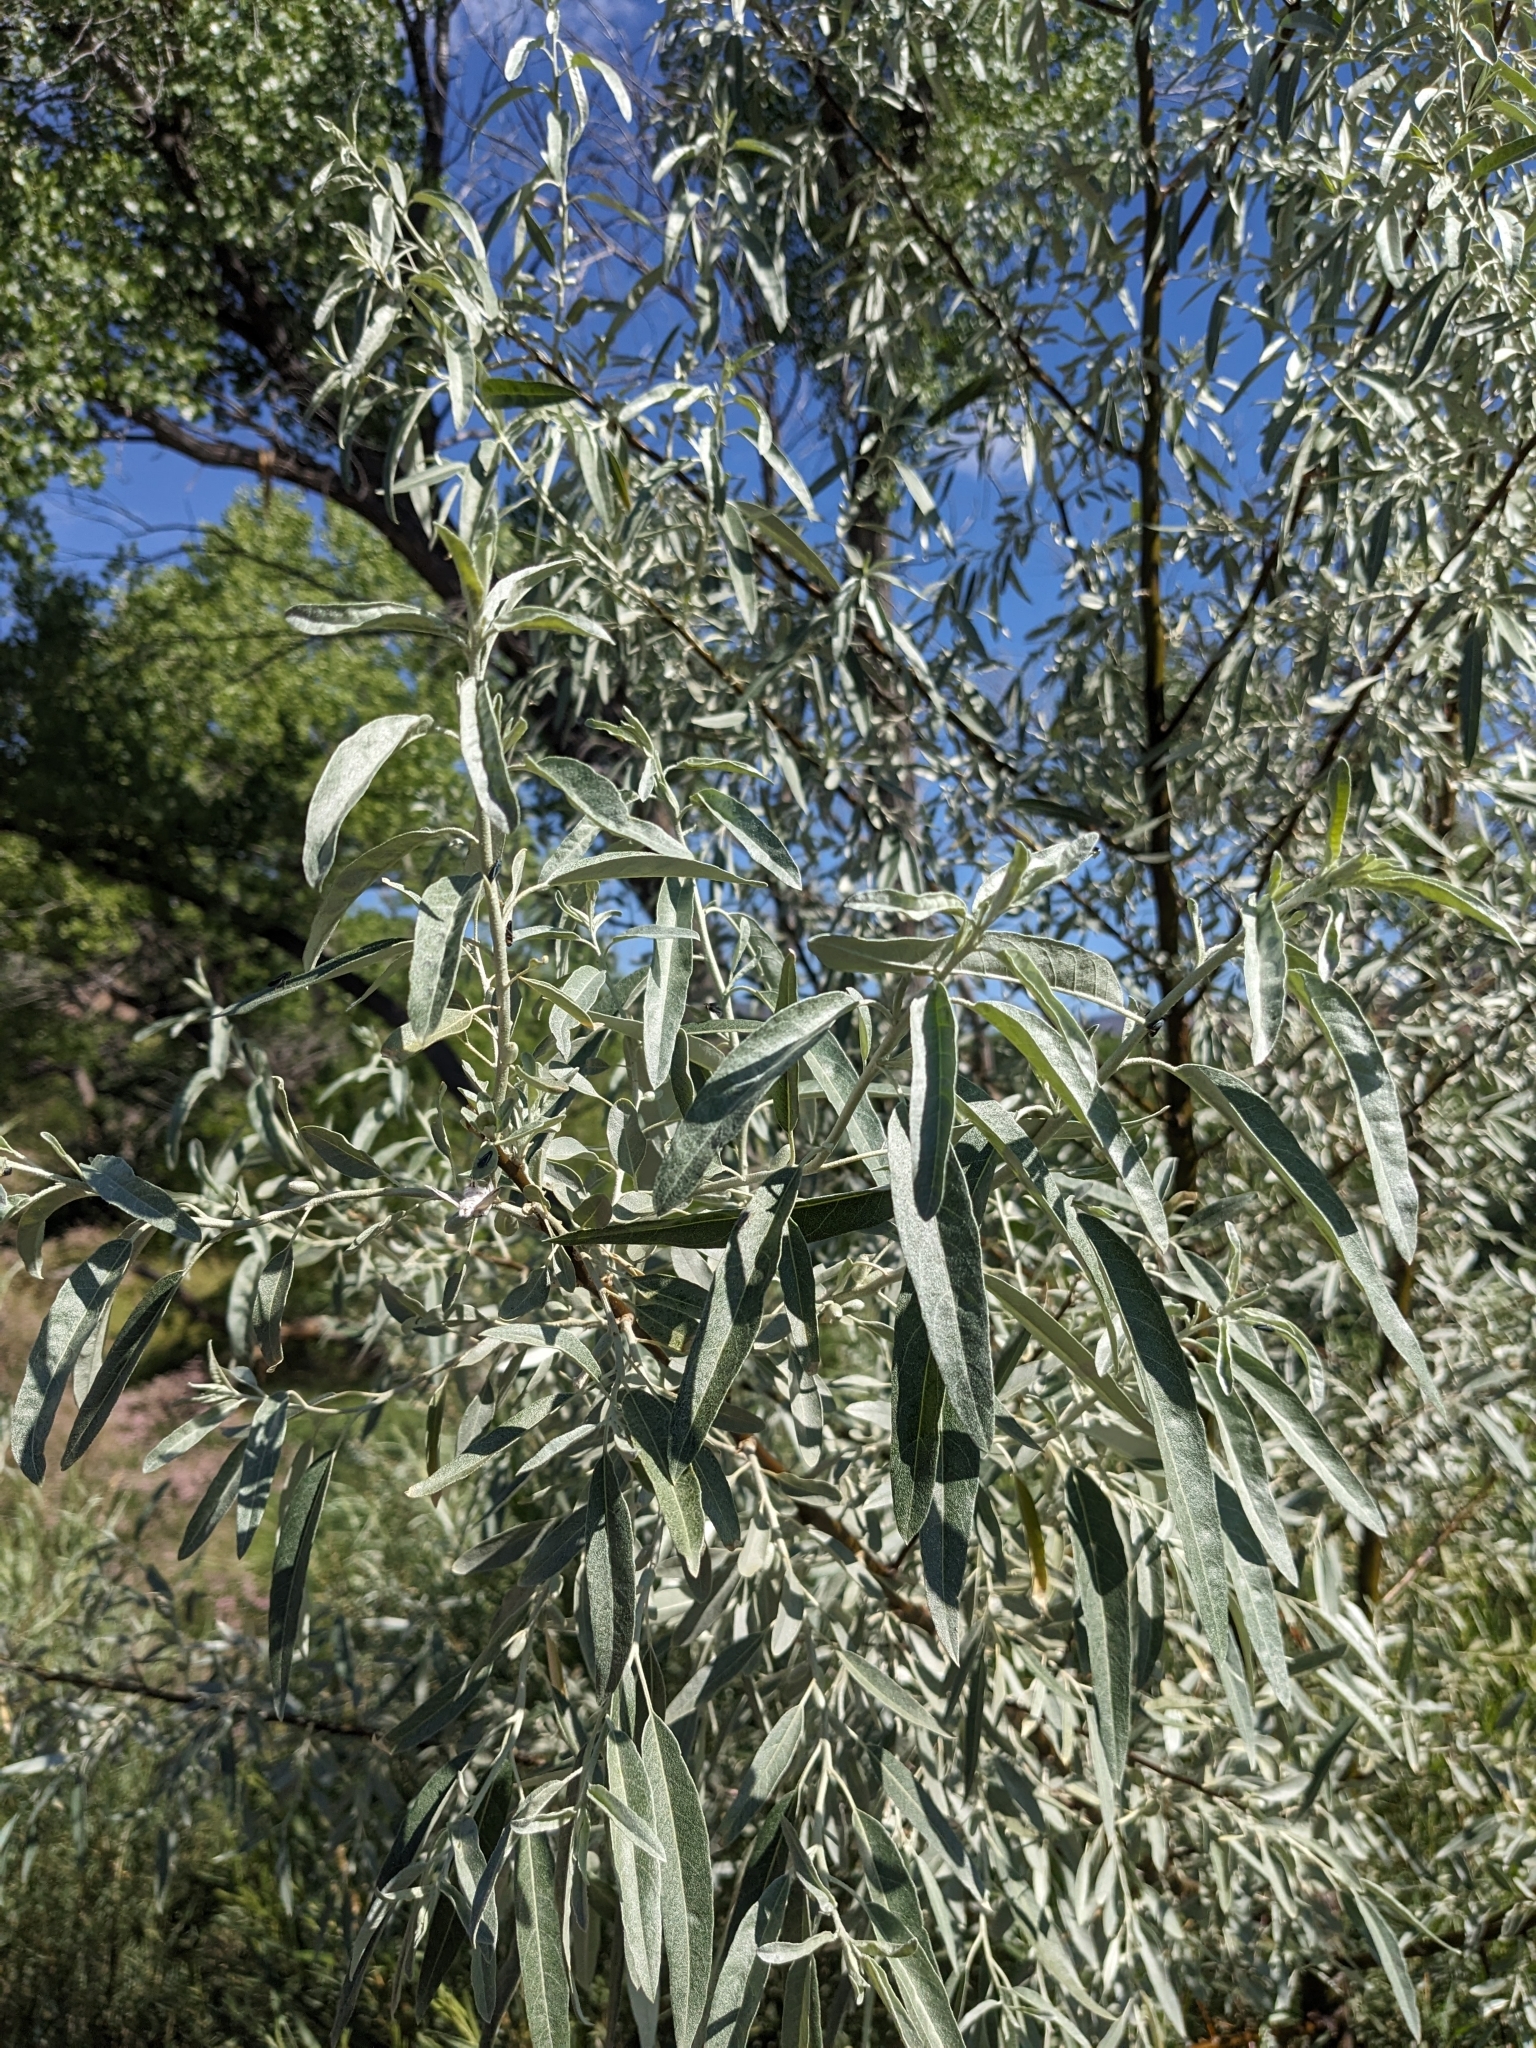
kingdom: Plantae
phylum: Tracheophyta
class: Magnoliopsida
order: Rosales
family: Elaeagnaceae
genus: Elaeagnus
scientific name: Elaeagnus angustifolia
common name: Russian olive
